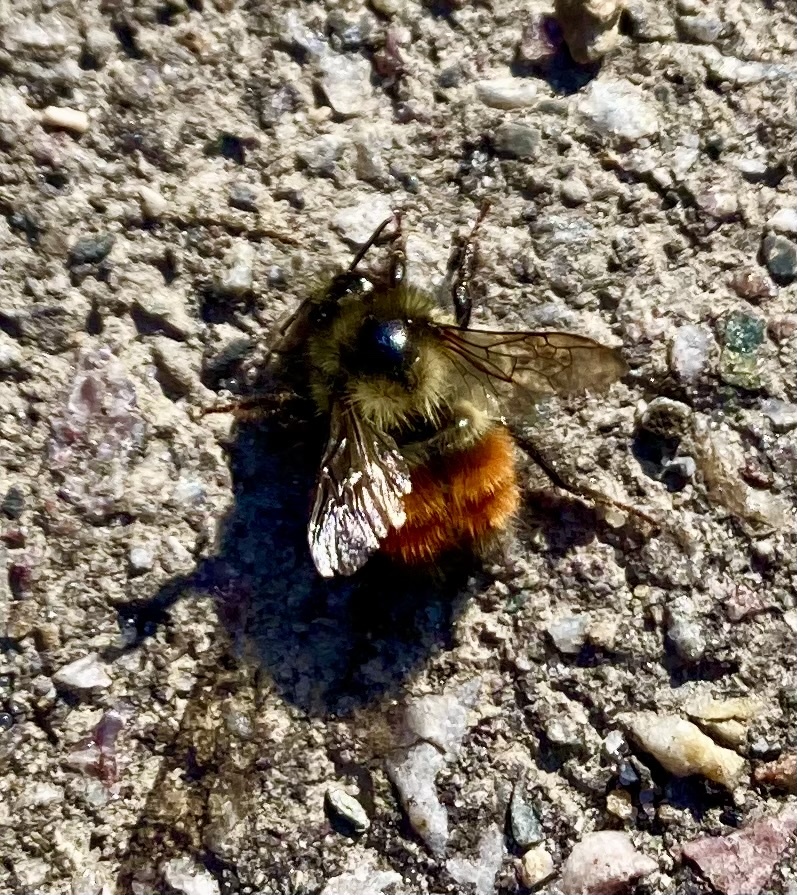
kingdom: Animalia
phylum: Arthropoda
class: Insecta
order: Hymenoptera
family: Apidae
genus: Bombus
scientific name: Bombus melanopygus
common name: Black tail bumble bee
